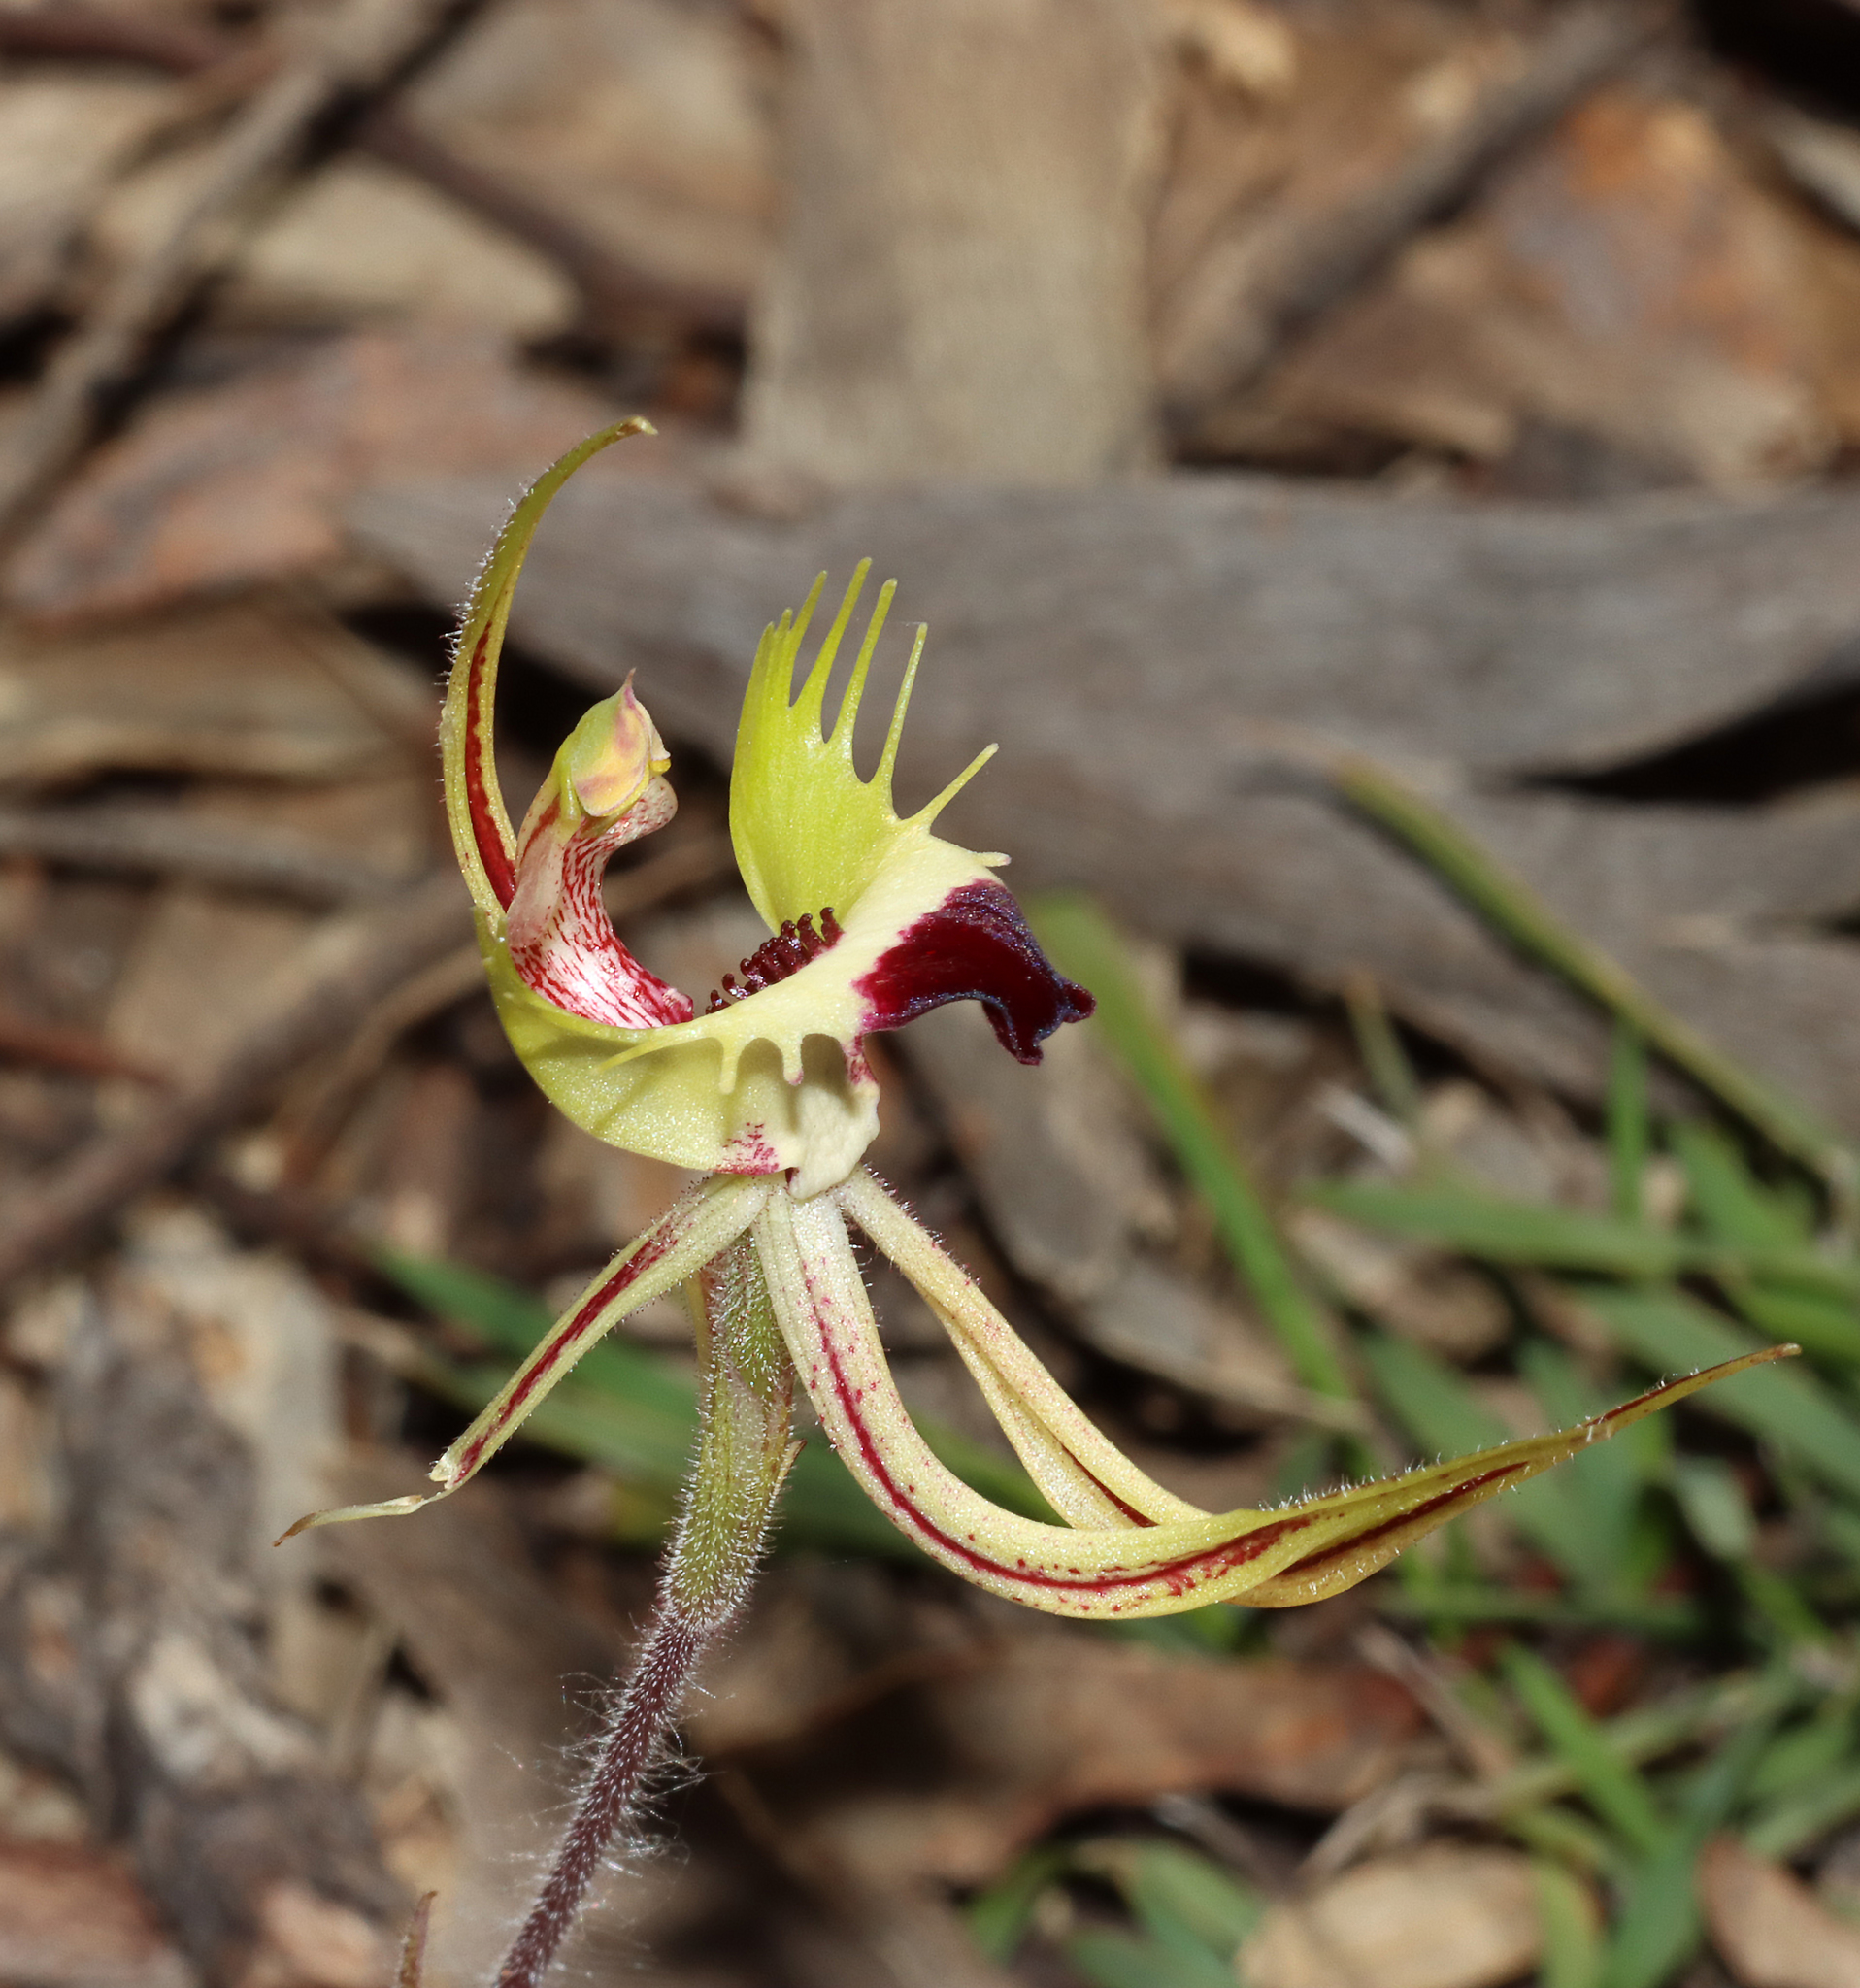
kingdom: Plantae
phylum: Tracheophyta
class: Liliopsida
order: Asparagales
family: Orchidaceae
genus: Caladenia
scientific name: Caladenia falcata
